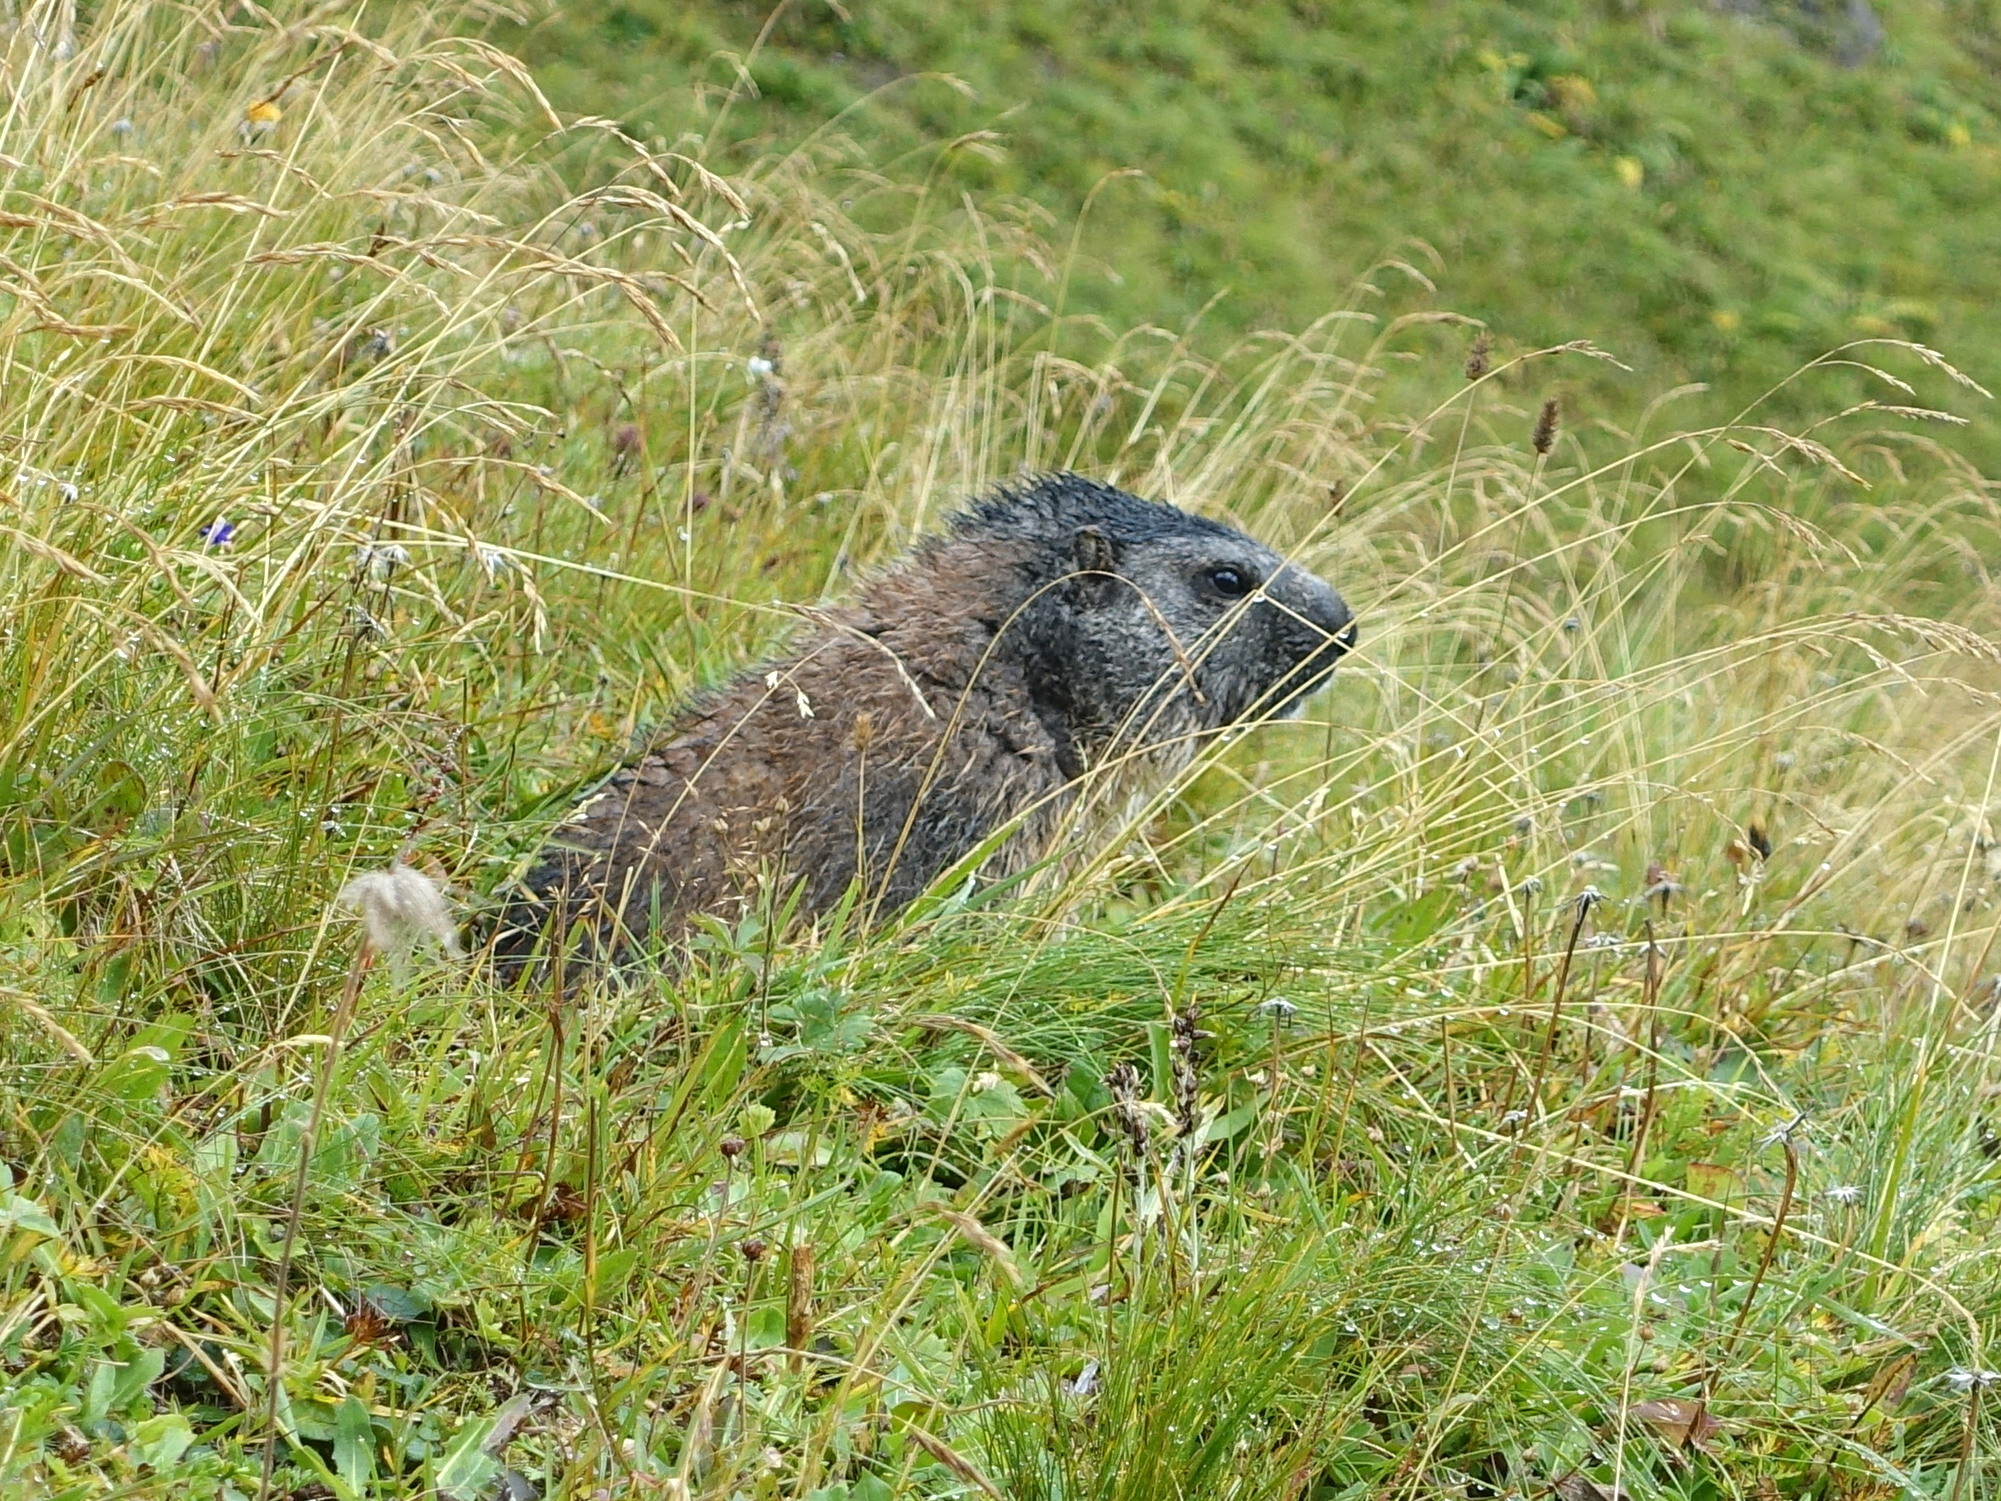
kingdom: Animalia
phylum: Chordata
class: Mammalia
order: Rodentia
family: Sciuridae
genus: Marmota
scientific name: Marmota marmota
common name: Alpine marmot
